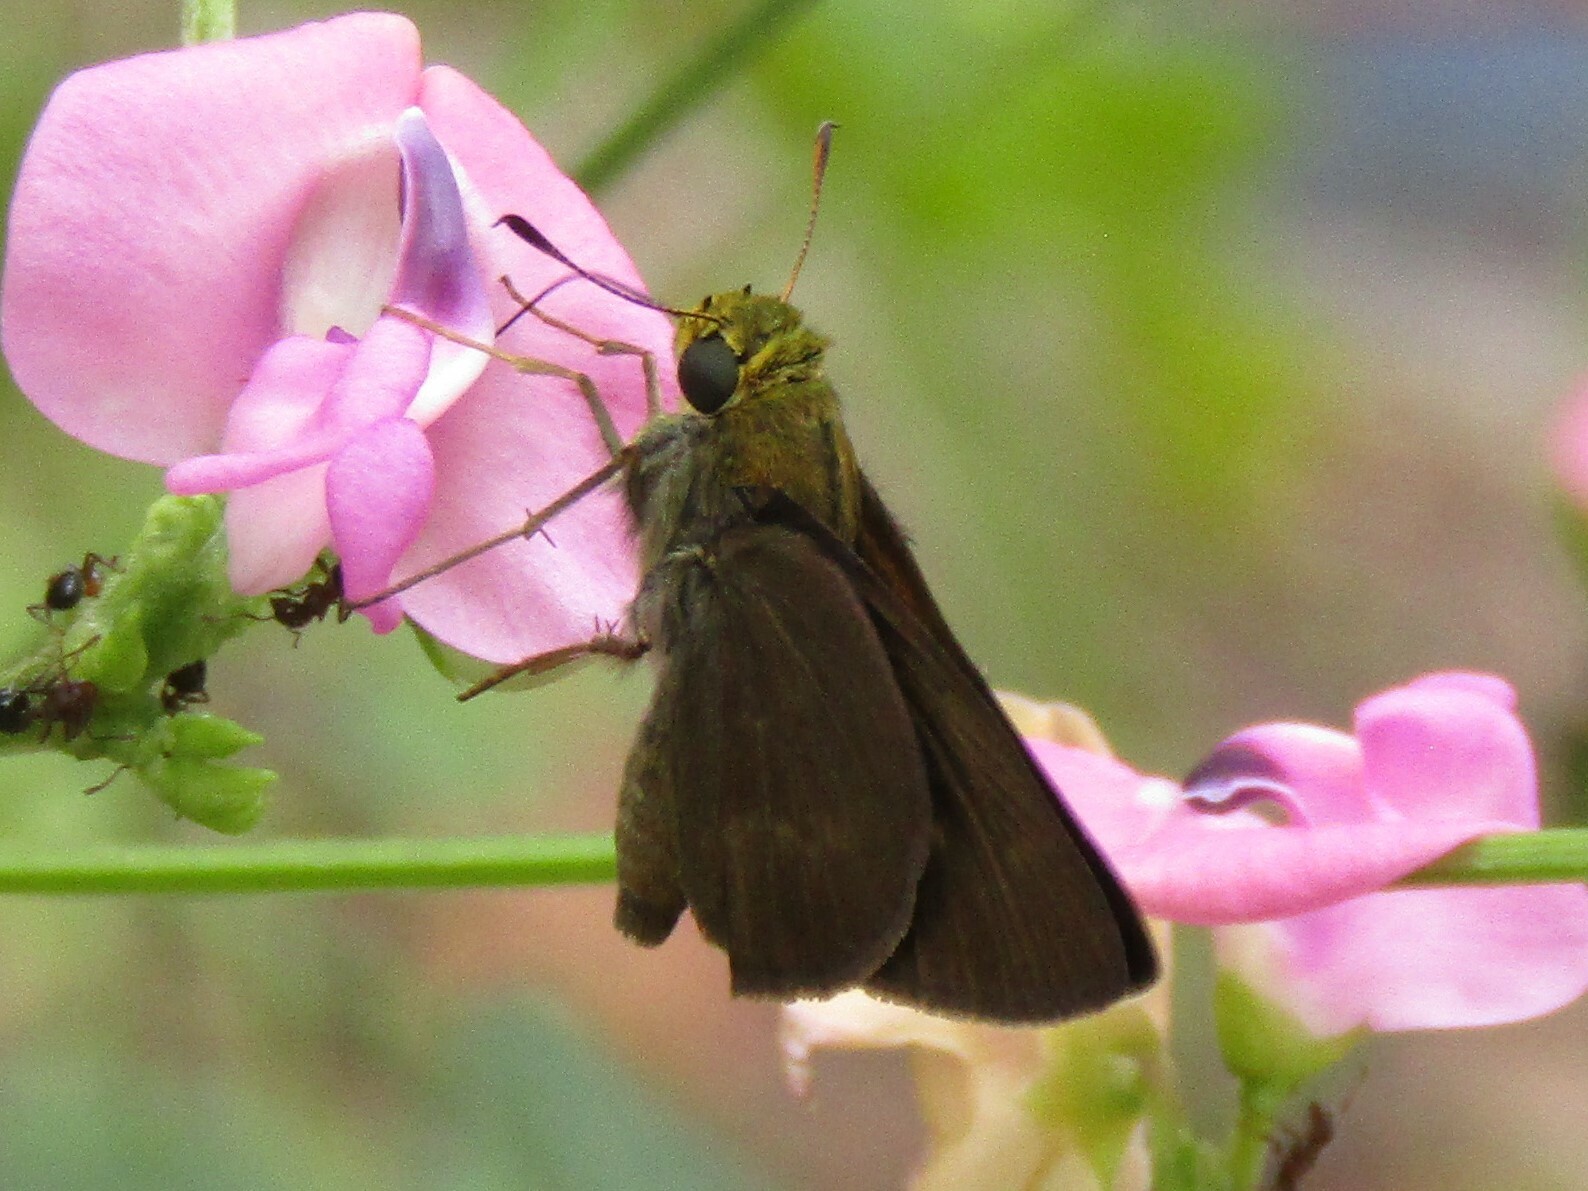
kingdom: Animalia
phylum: Arthropoda
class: Insecta
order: Lepidoptera
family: Hesperiidae
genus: Euphyes
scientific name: Euphyes vestris
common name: Dun skipper
